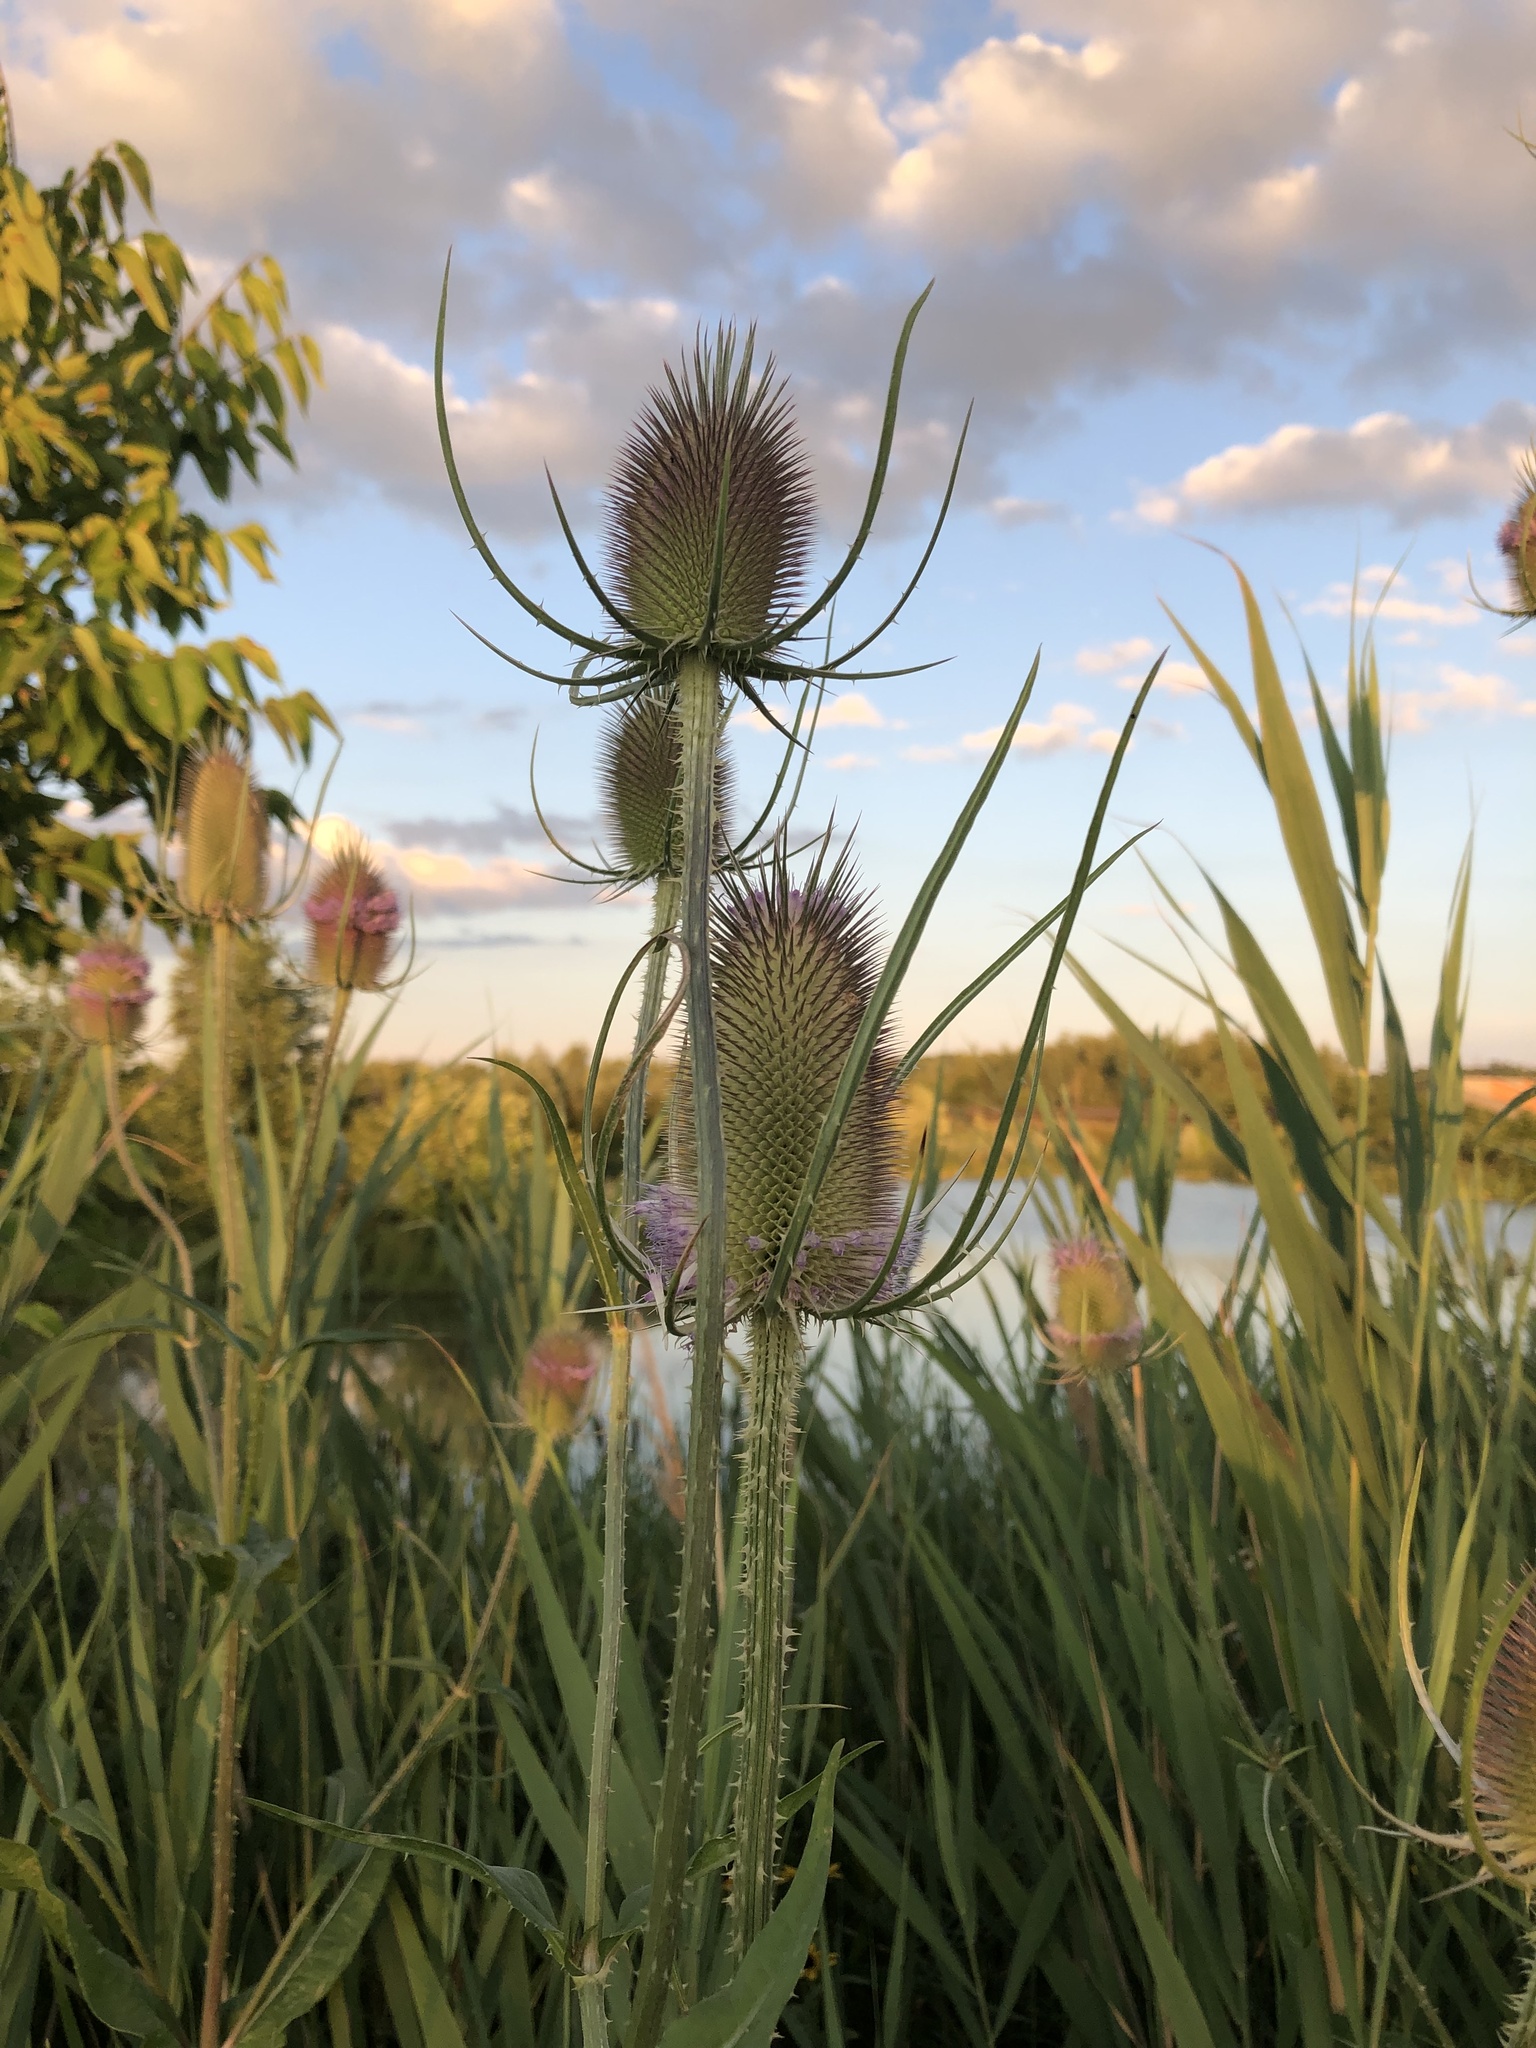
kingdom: Plantae
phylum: Tracheophyta
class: Magnoliopsida
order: Dipsacales
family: Caprifoliaceae
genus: Dipsacus
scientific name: Dipsacus fullonum
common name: Teasel
